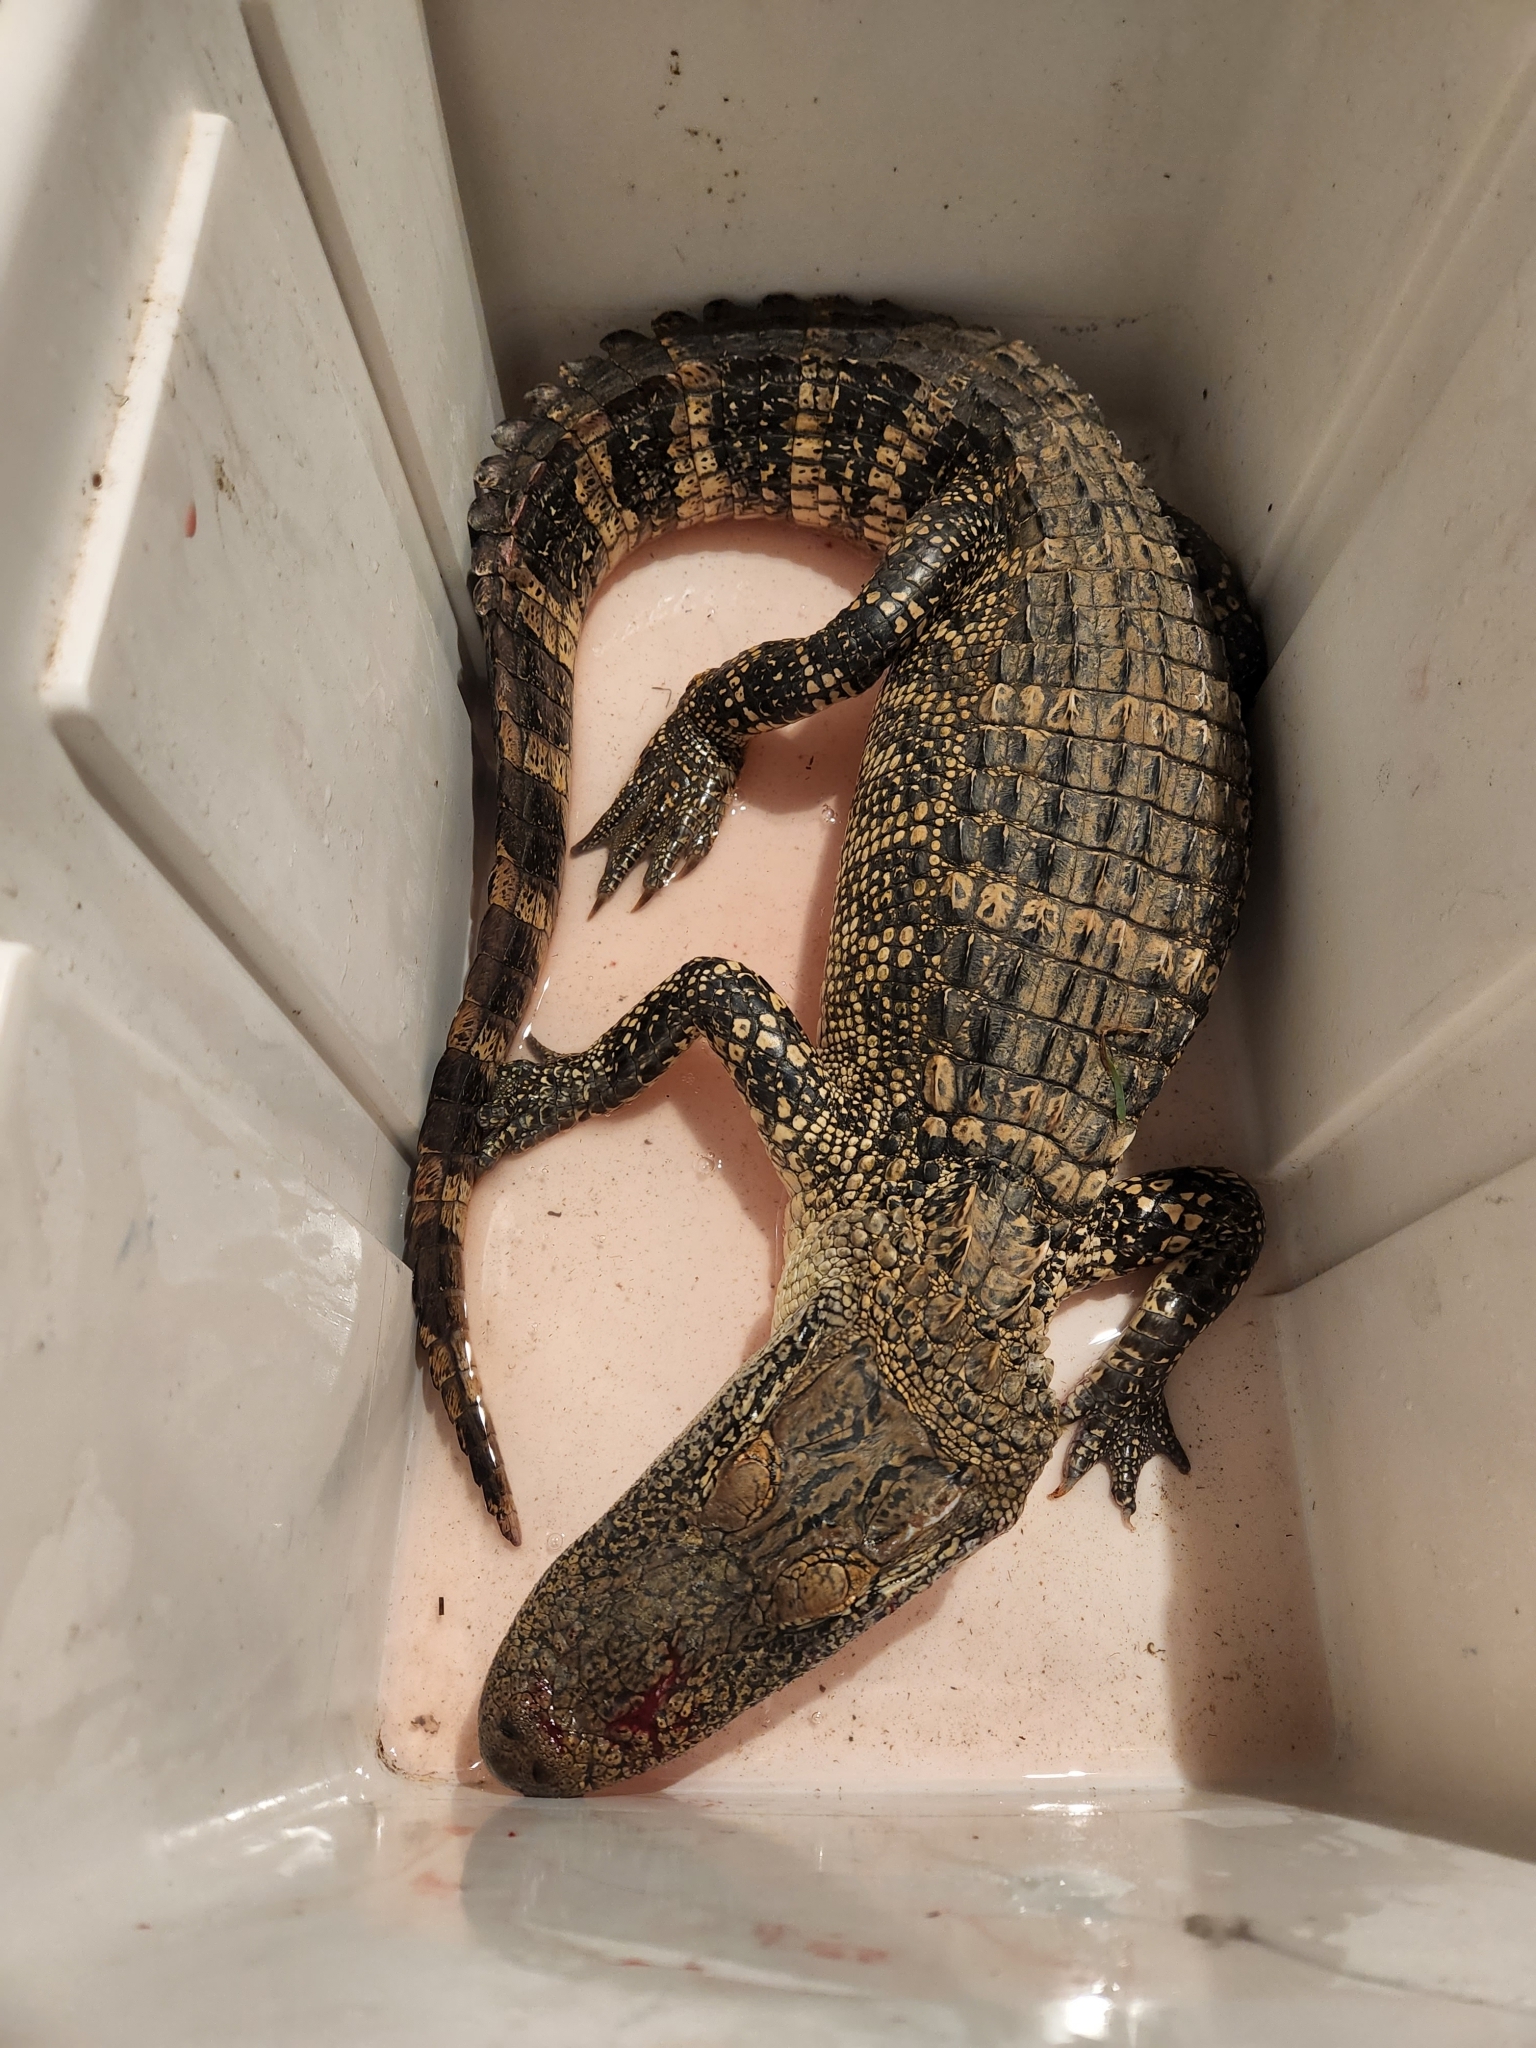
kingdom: Animalia
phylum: Chordata
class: Crocodylia
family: Alligatoridae
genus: Alligator
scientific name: Alligator mississippiensis
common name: American alligator
